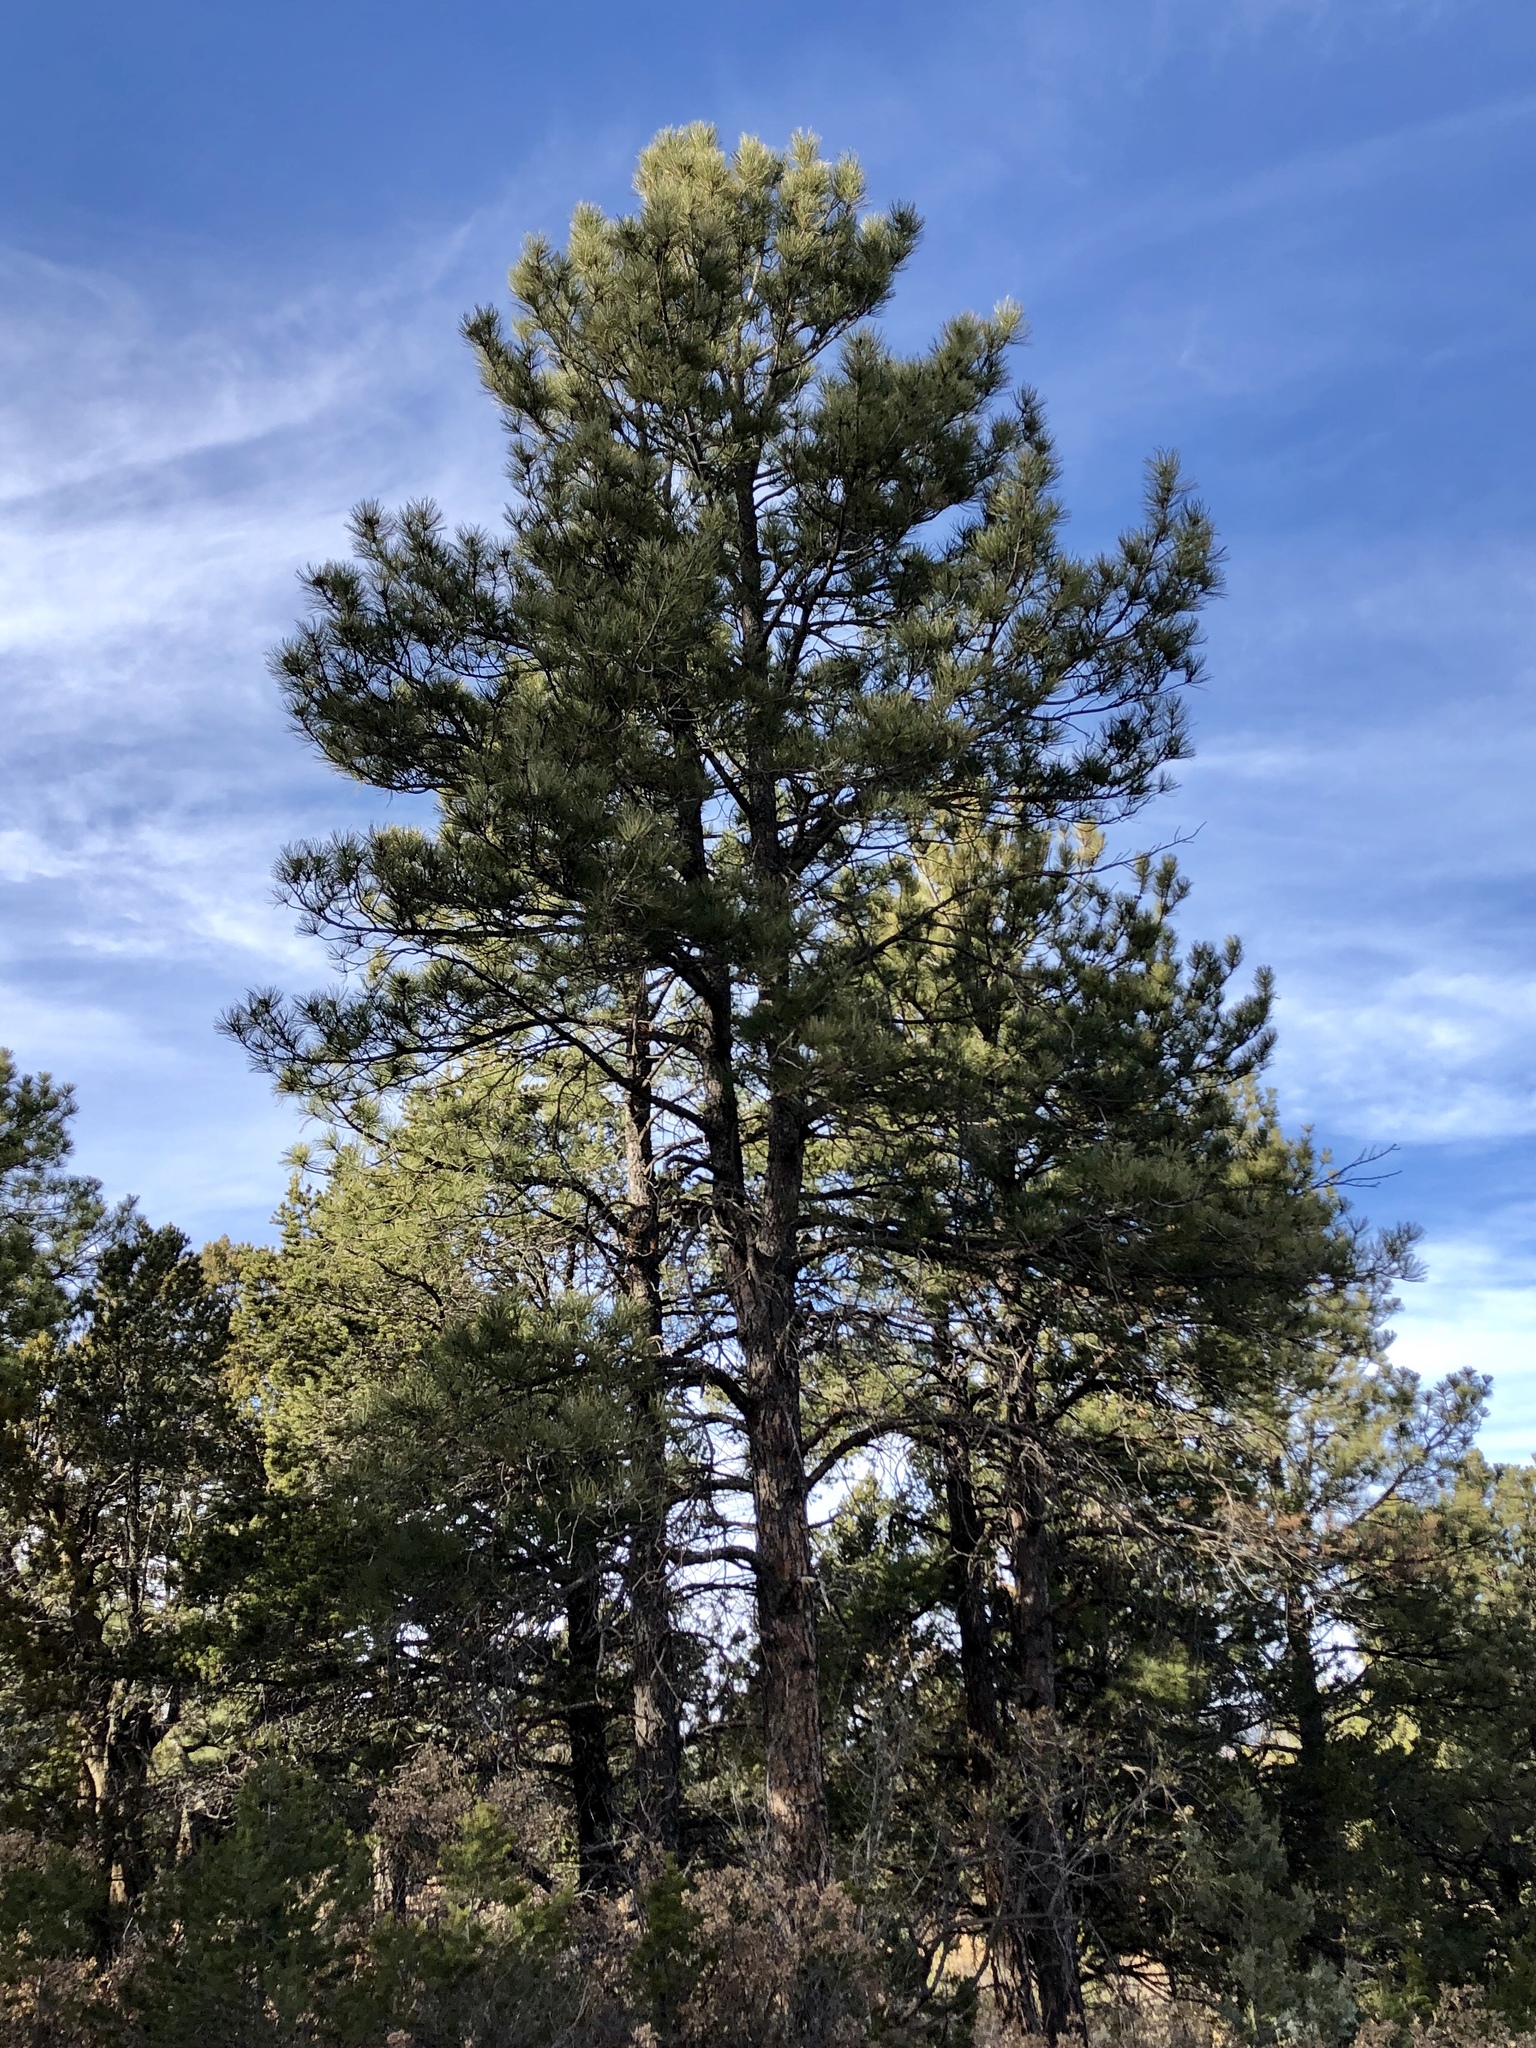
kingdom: Plantae
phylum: Tracheophyta
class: Pinopsida
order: Pinales
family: Pinaceae
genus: Pinus
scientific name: Pinus ponderosa
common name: Western yellow-pine
